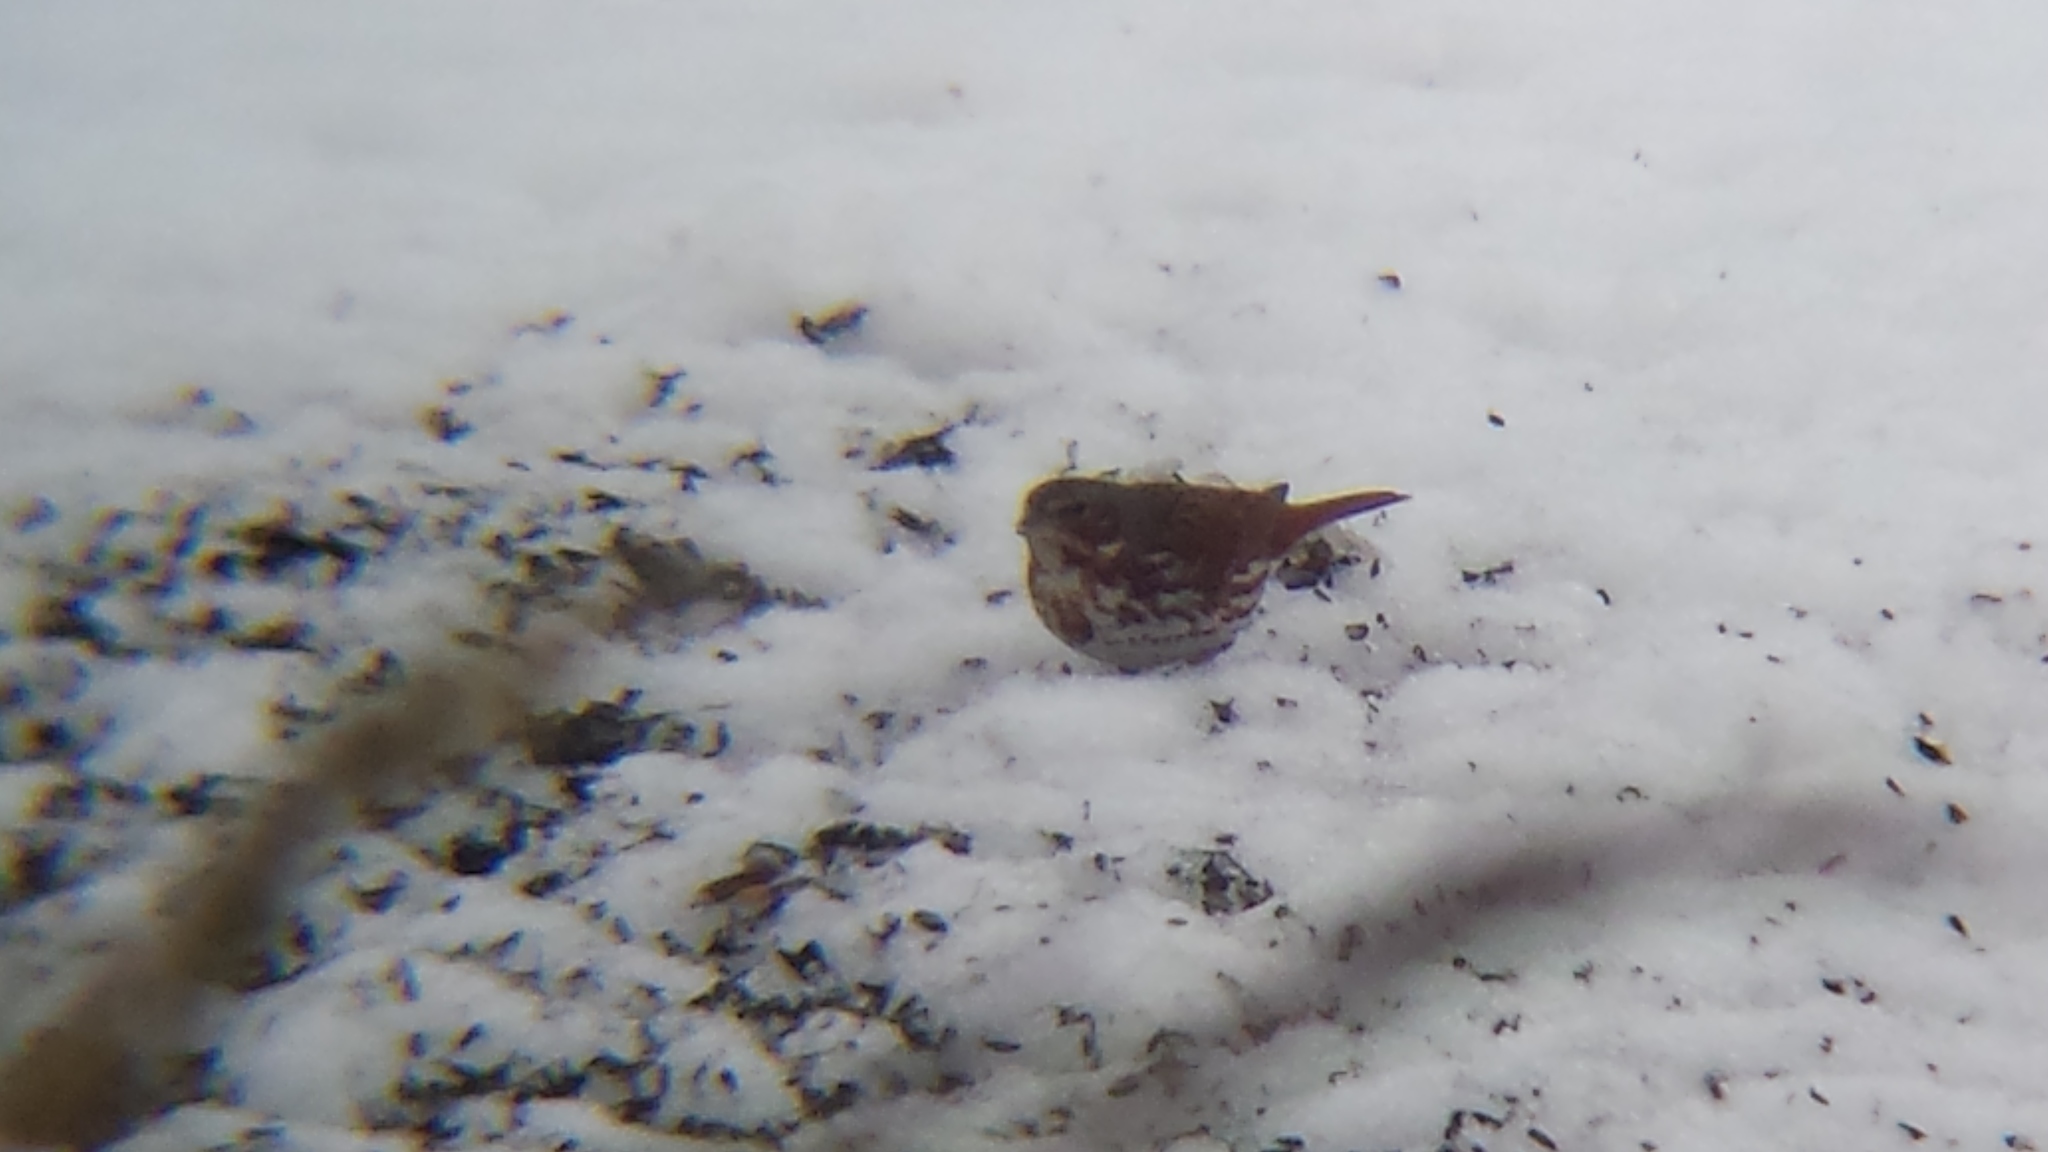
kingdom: Animalia
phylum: Chordata
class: Aves
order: Passeriformes
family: Passerellidae
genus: Passerella
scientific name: Passerella iliaca
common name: Fox sparrow
